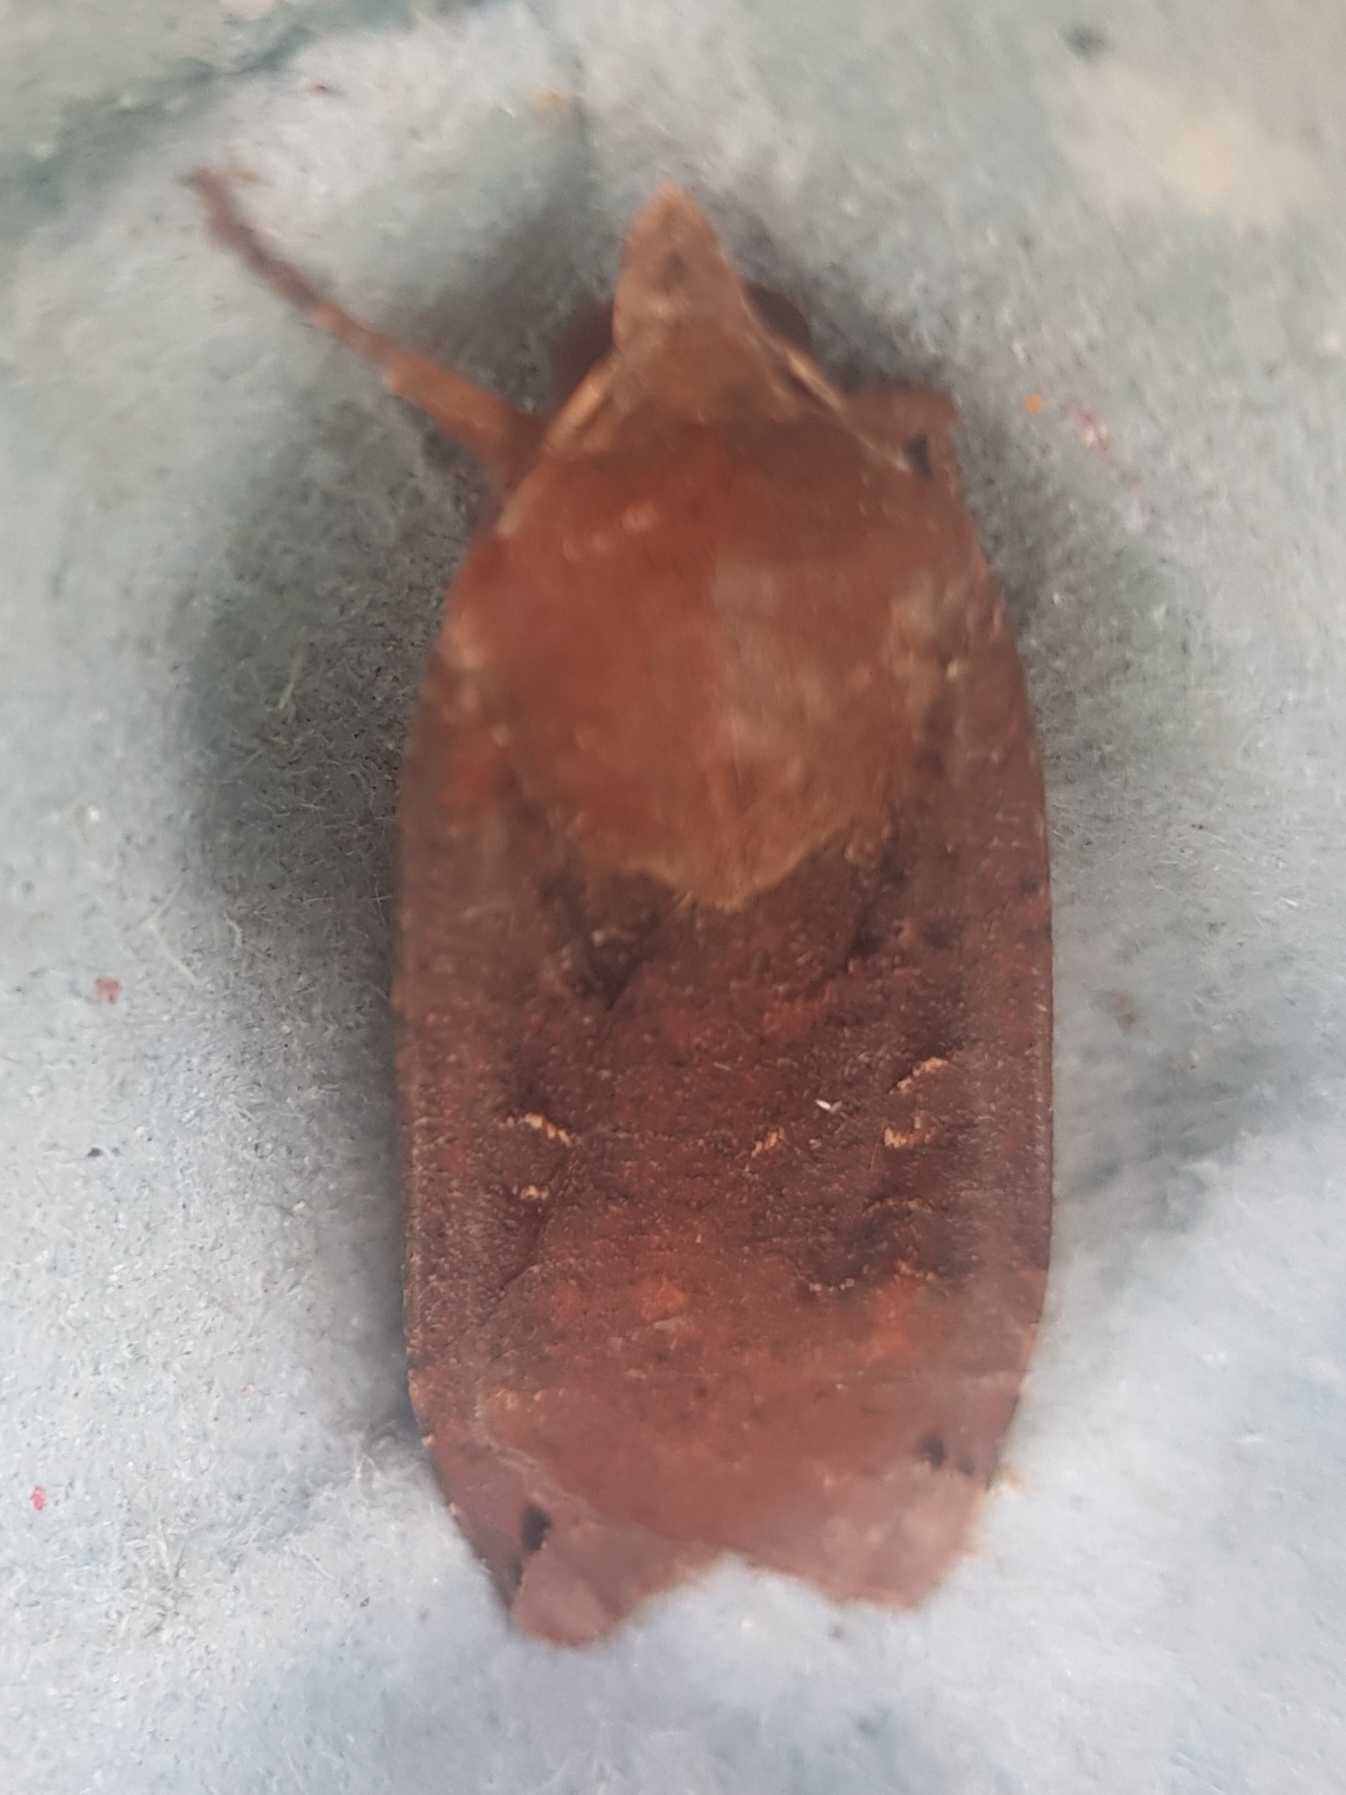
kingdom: Animalia
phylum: Arthropoda
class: Insecta
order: Lepidoptera
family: Noctuidae
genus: Noctua
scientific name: Noctua pronuba
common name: Large yellow underwing
